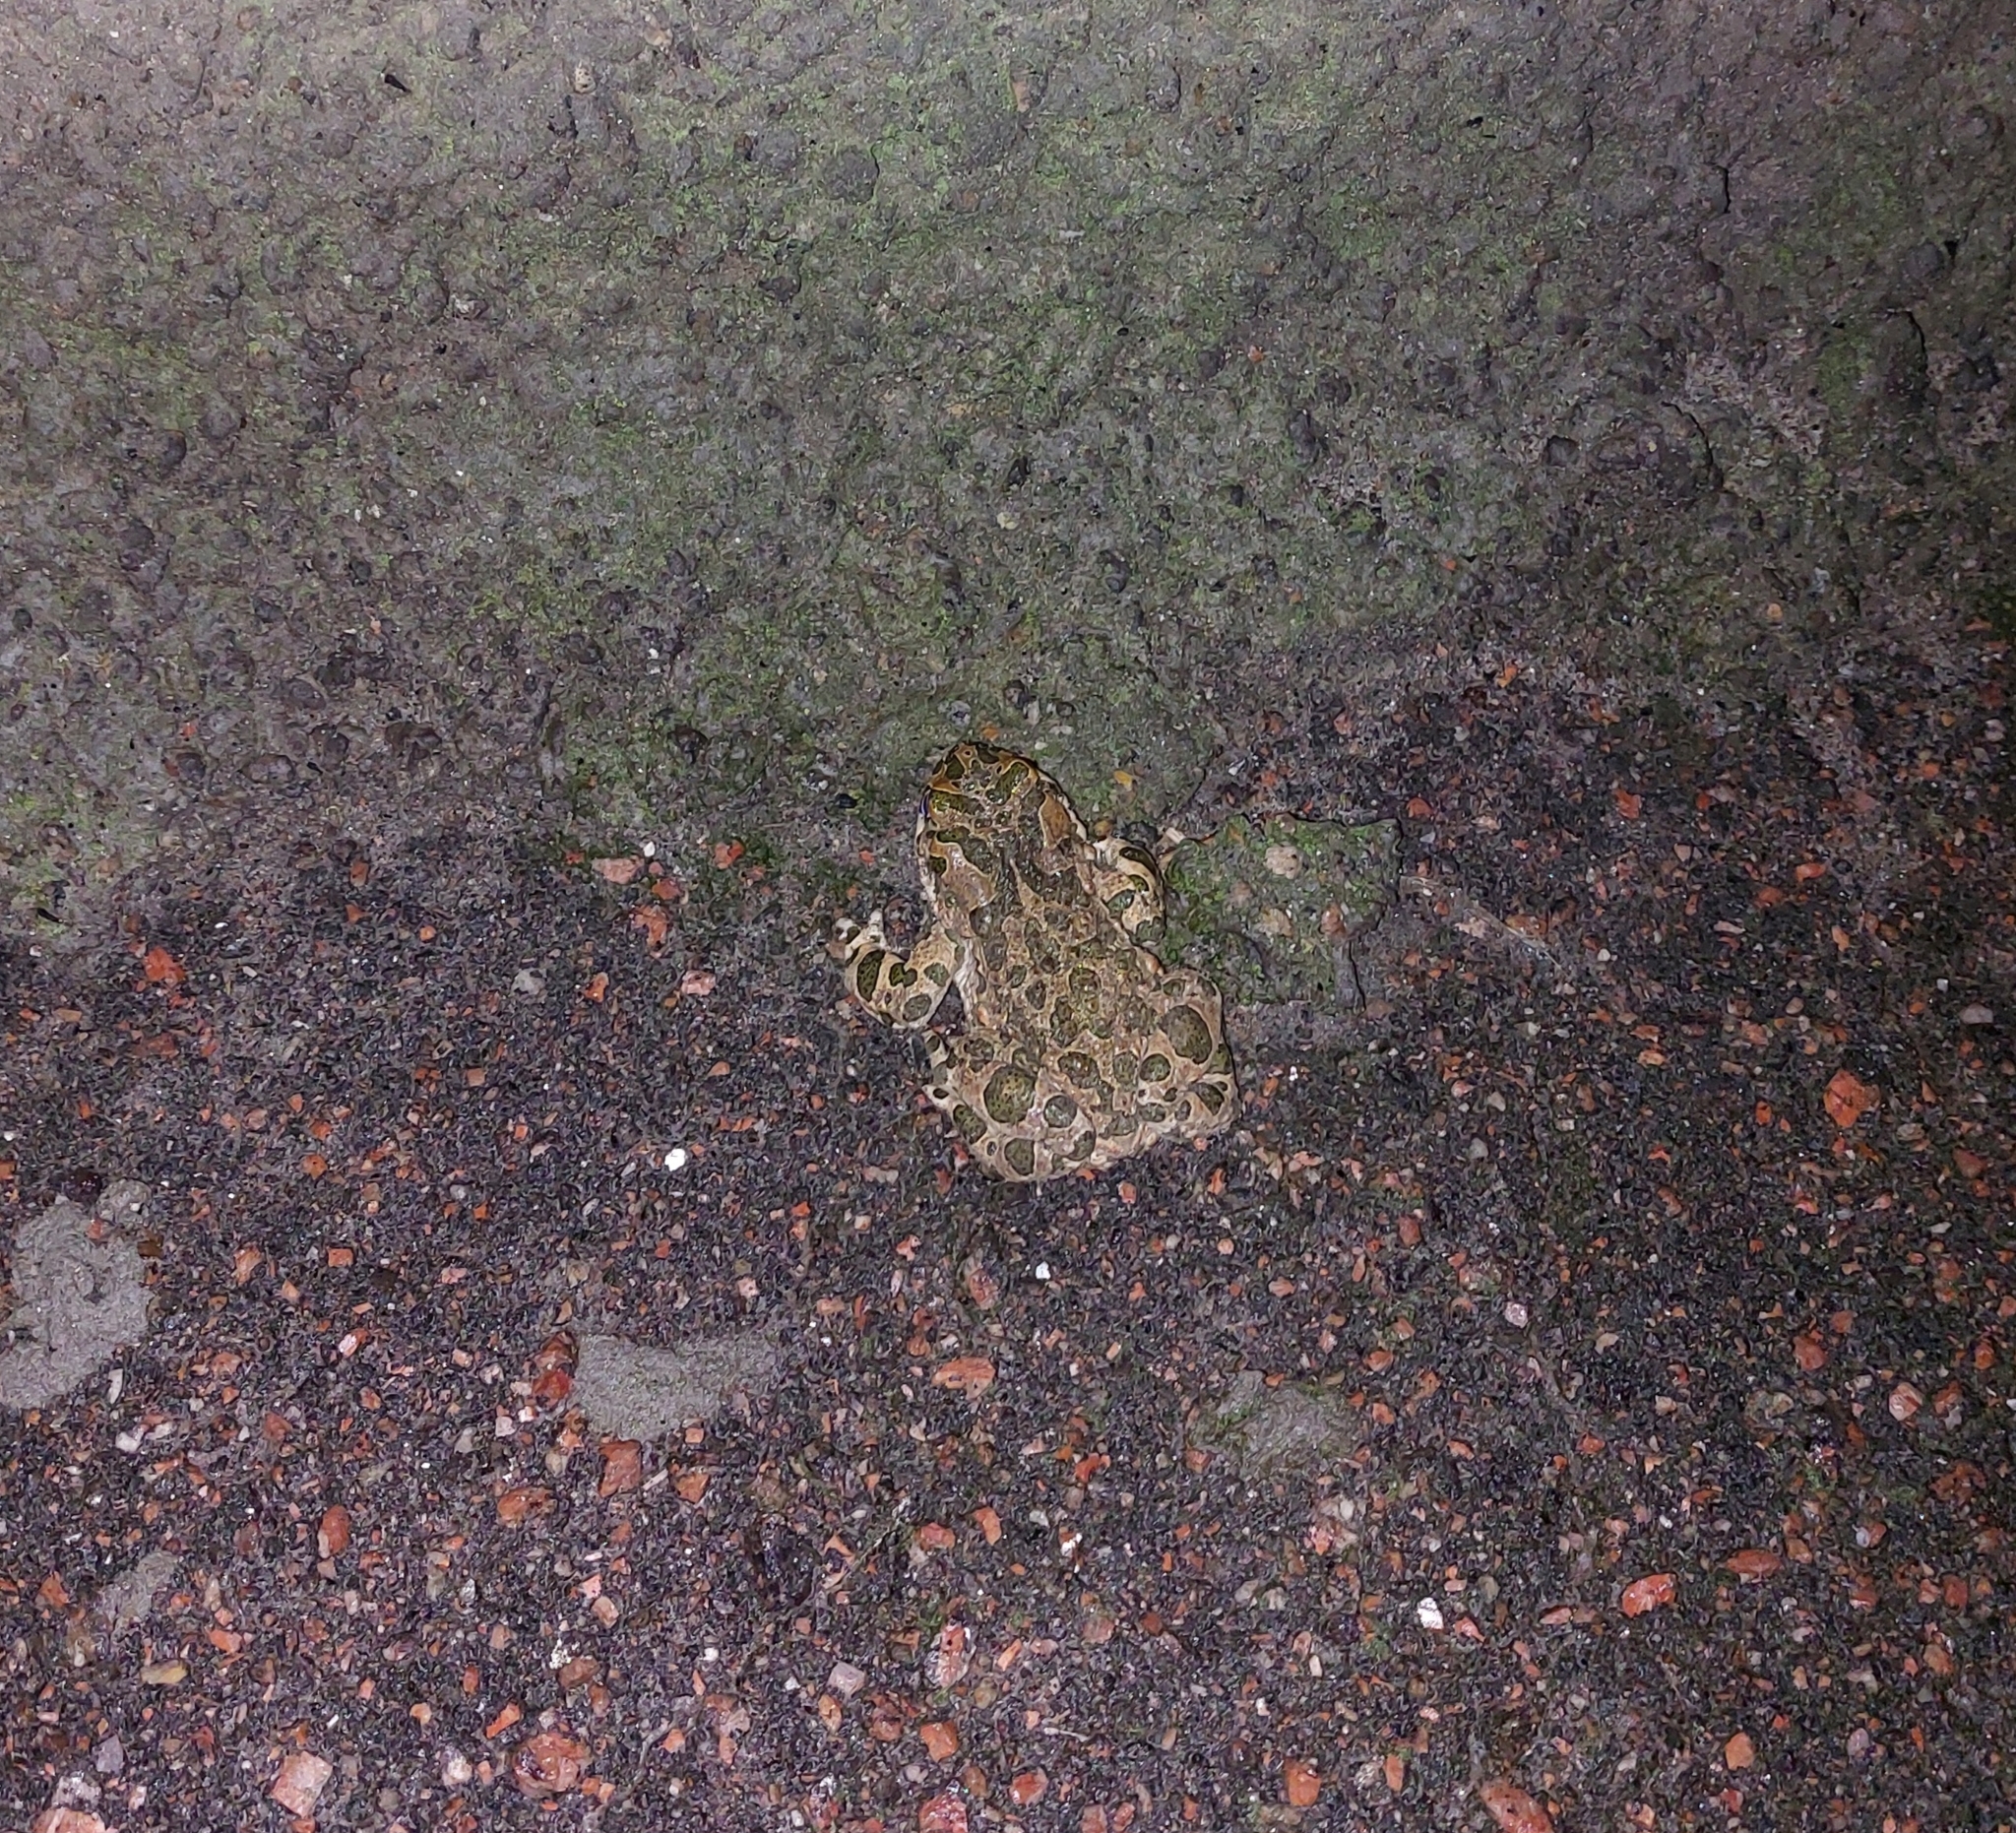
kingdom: Animalia
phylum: Chordata
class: Amphibia
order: Anura
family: Bufonidae
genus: Bufotes
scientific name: Bufotes viridis
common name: European green toad
